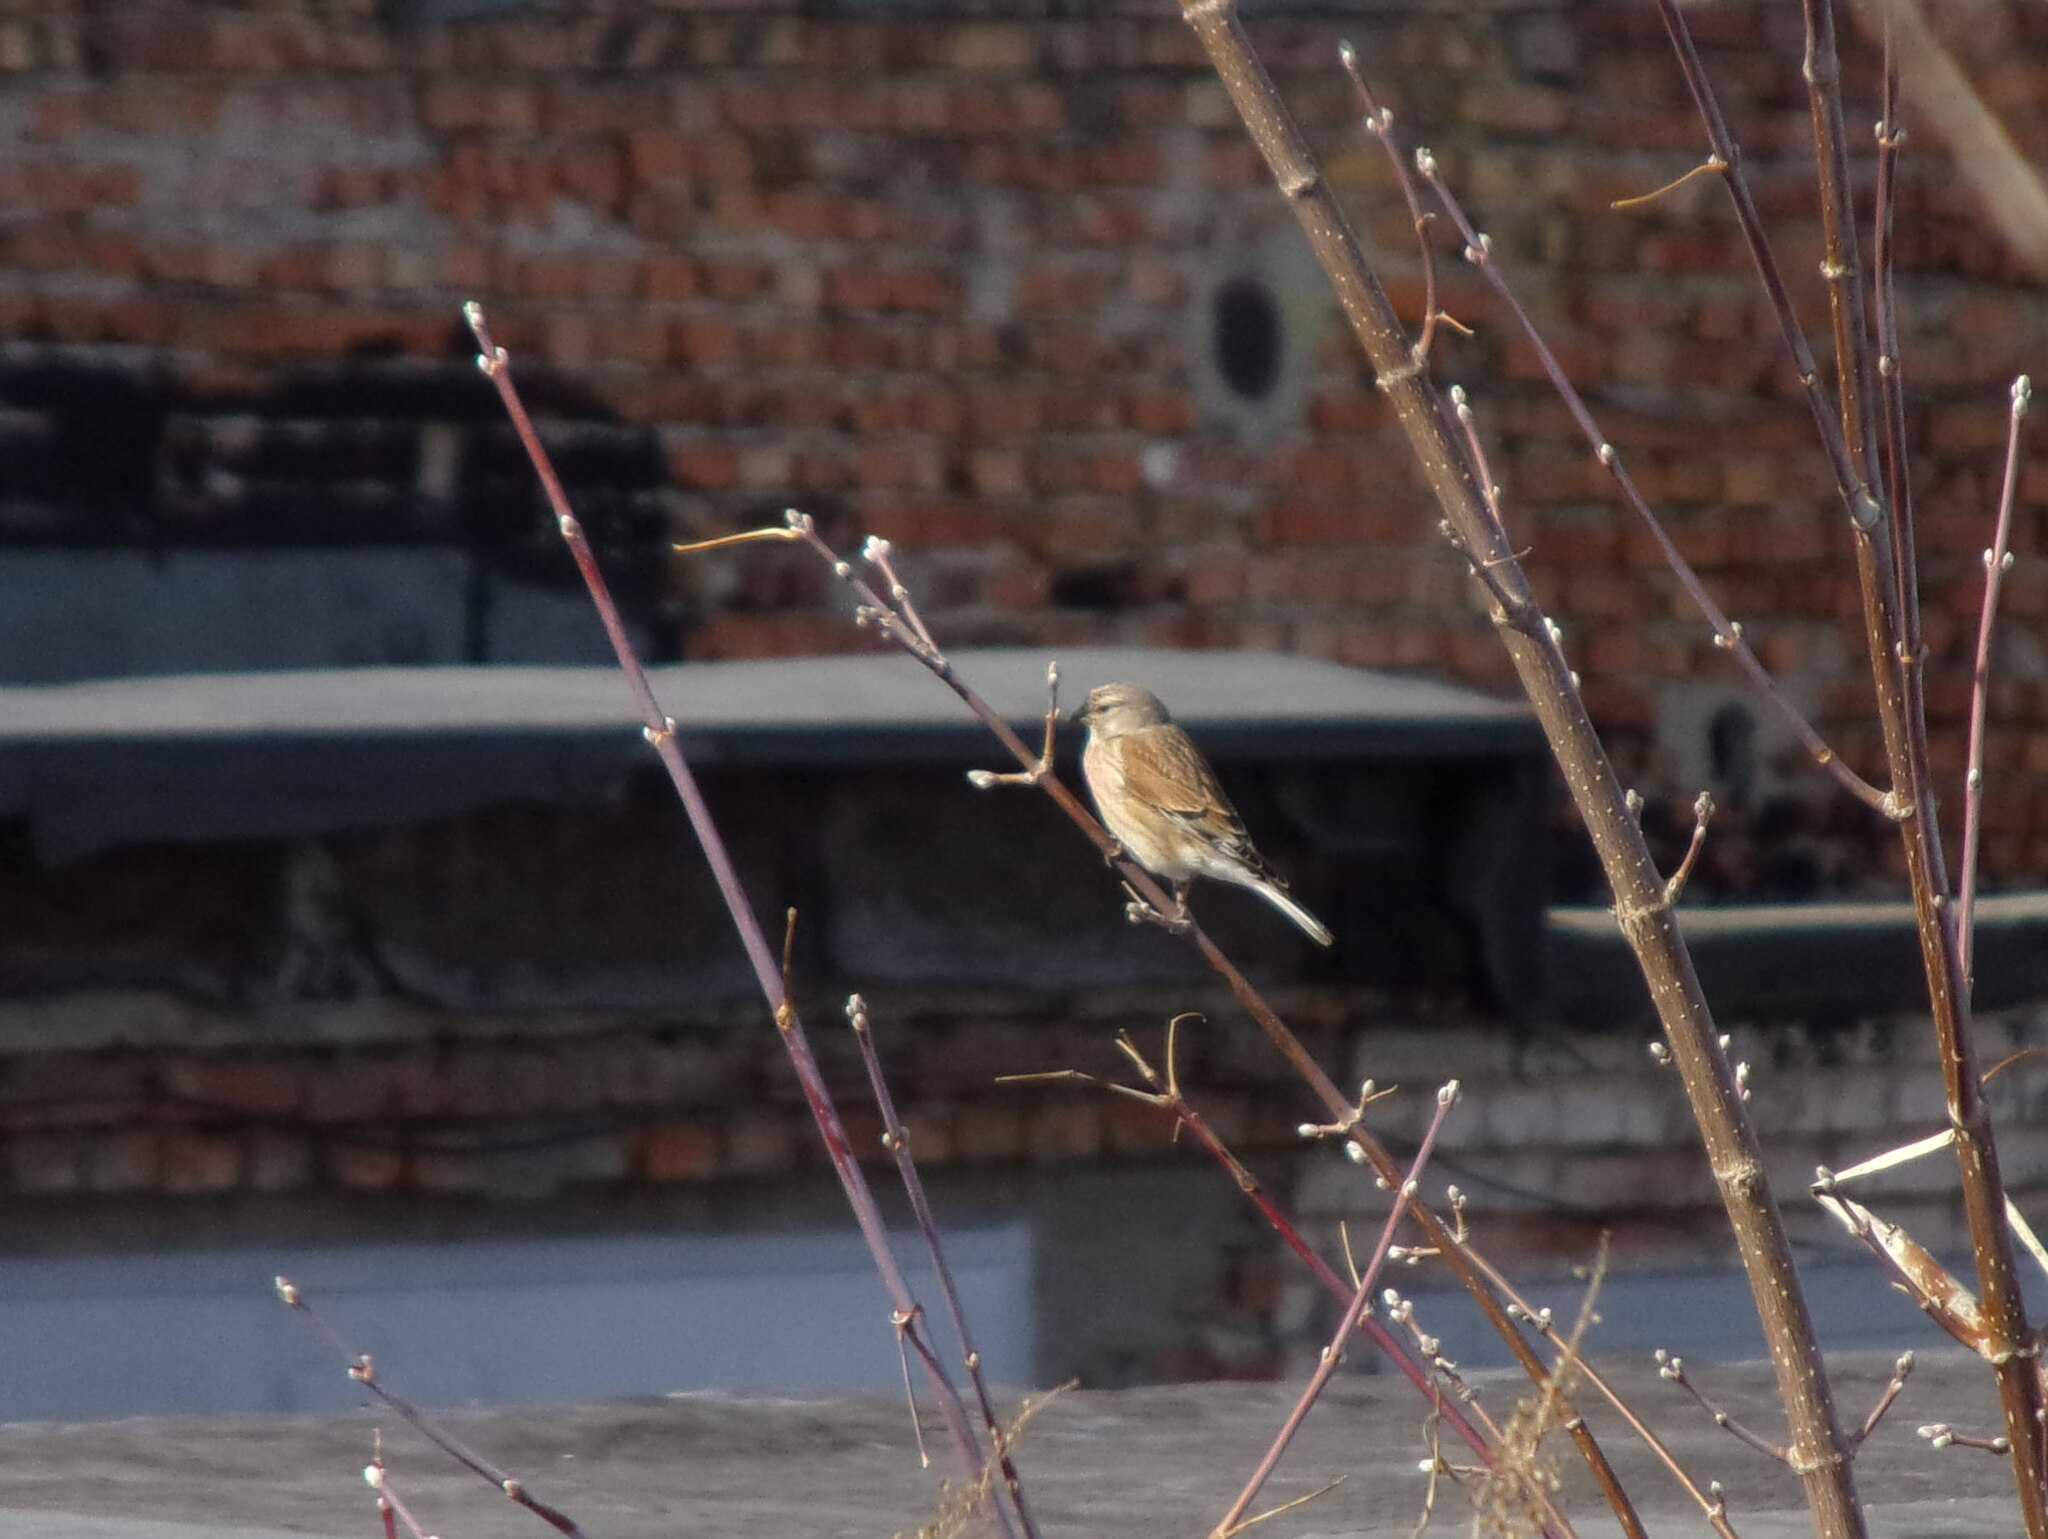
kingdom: Animalia
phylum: Chordata
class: Aves
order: Passeriformes
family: Fringillidae
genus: Linaria
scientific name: Linaria cannabina
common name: Common linnet
